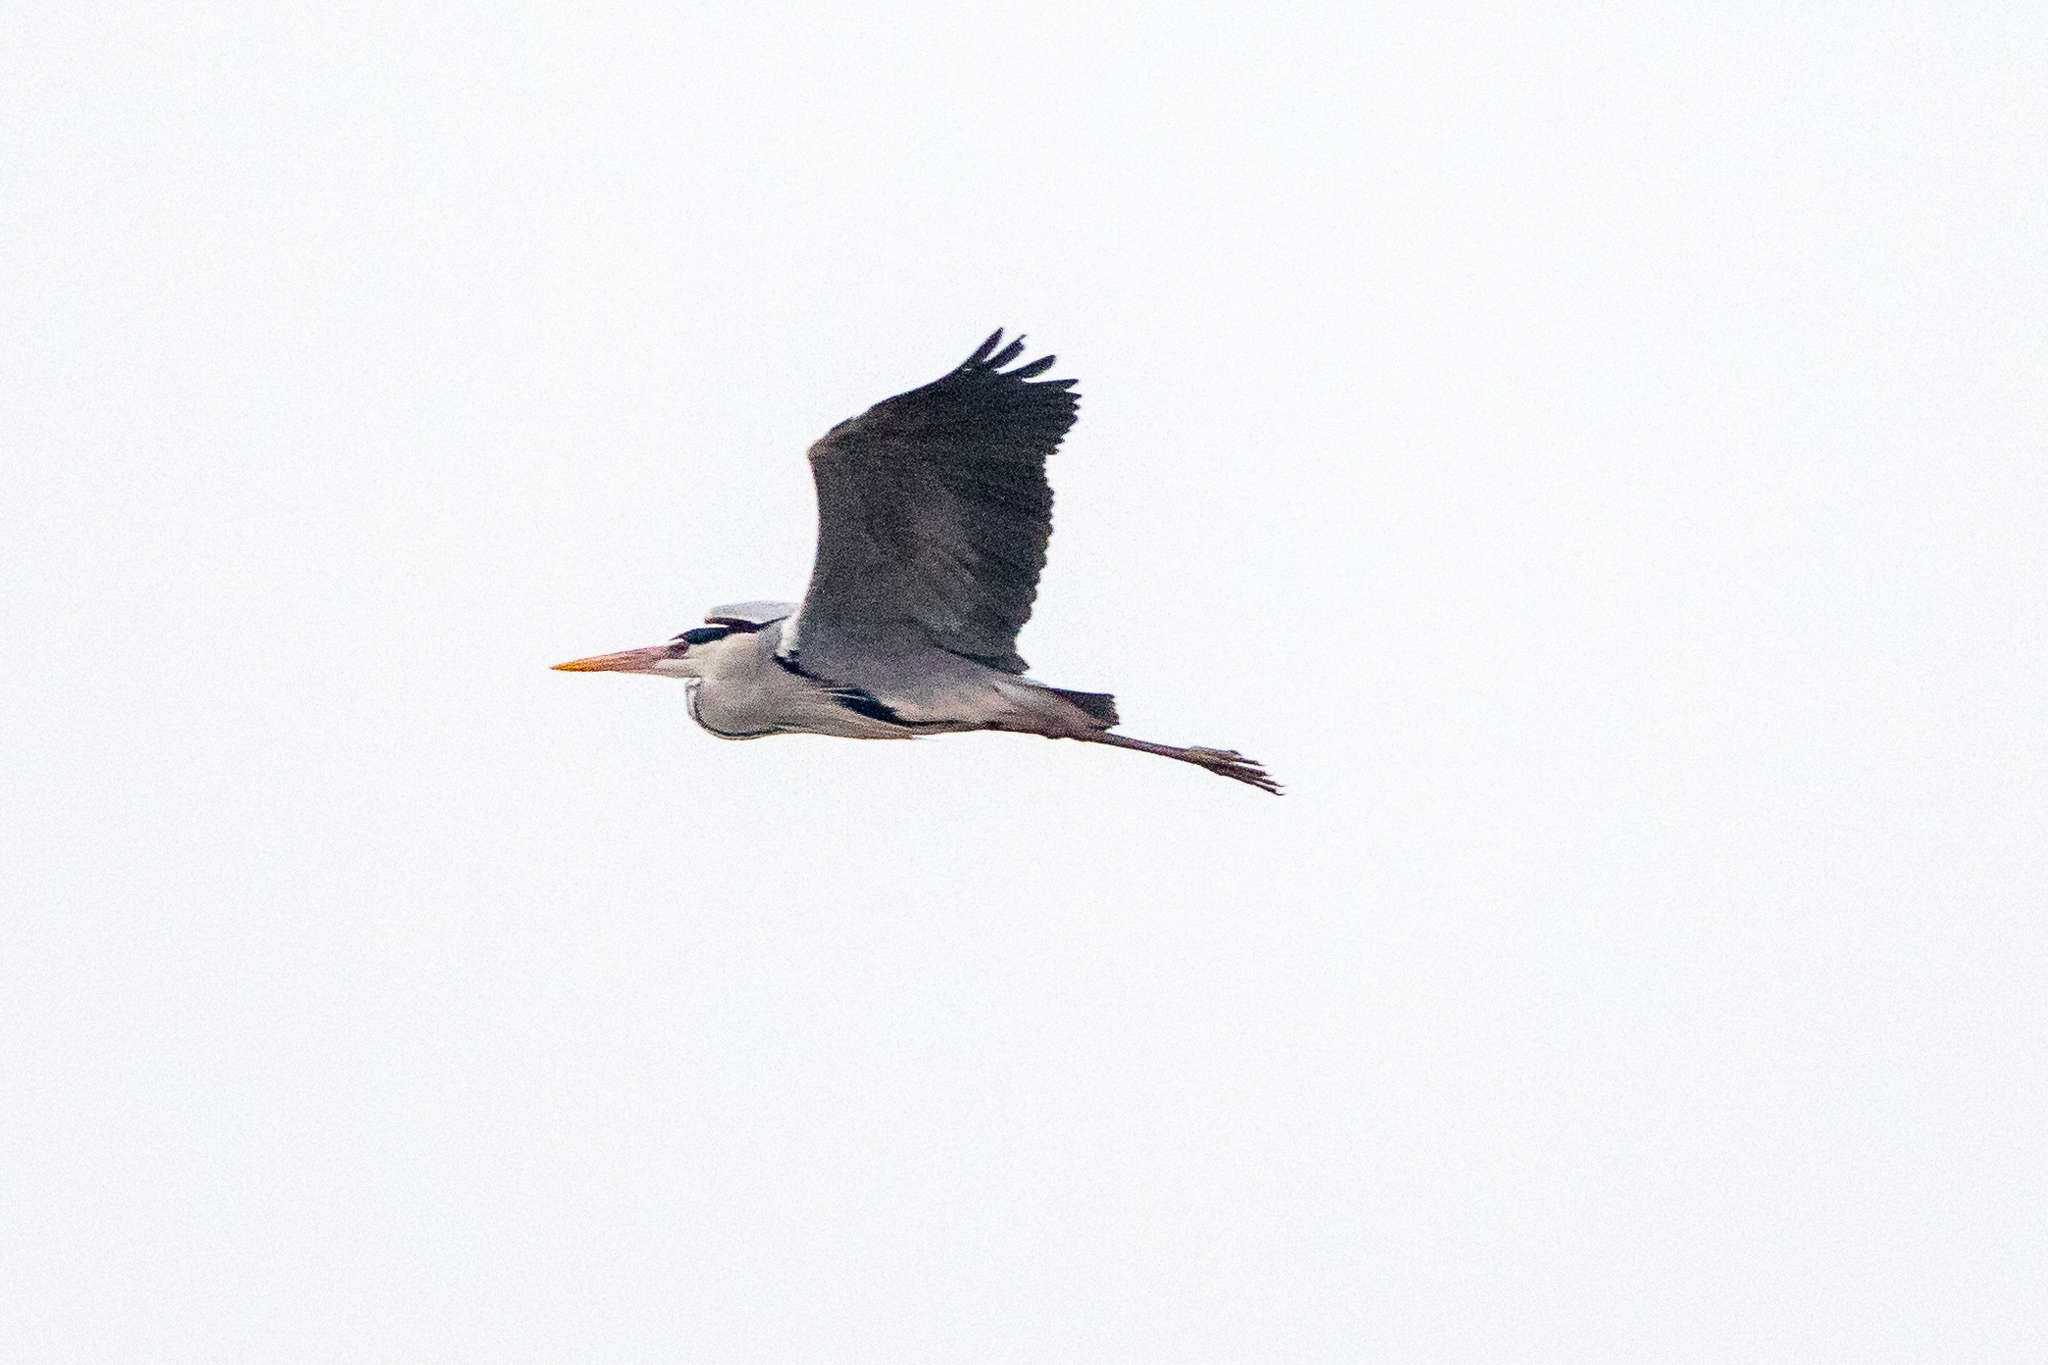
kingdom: Animalia
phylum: Chordata
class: Aves
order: Pelecaniformes
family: Ardeidae
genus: Ardea
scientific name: Ardea cinerea
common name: Grey heron
